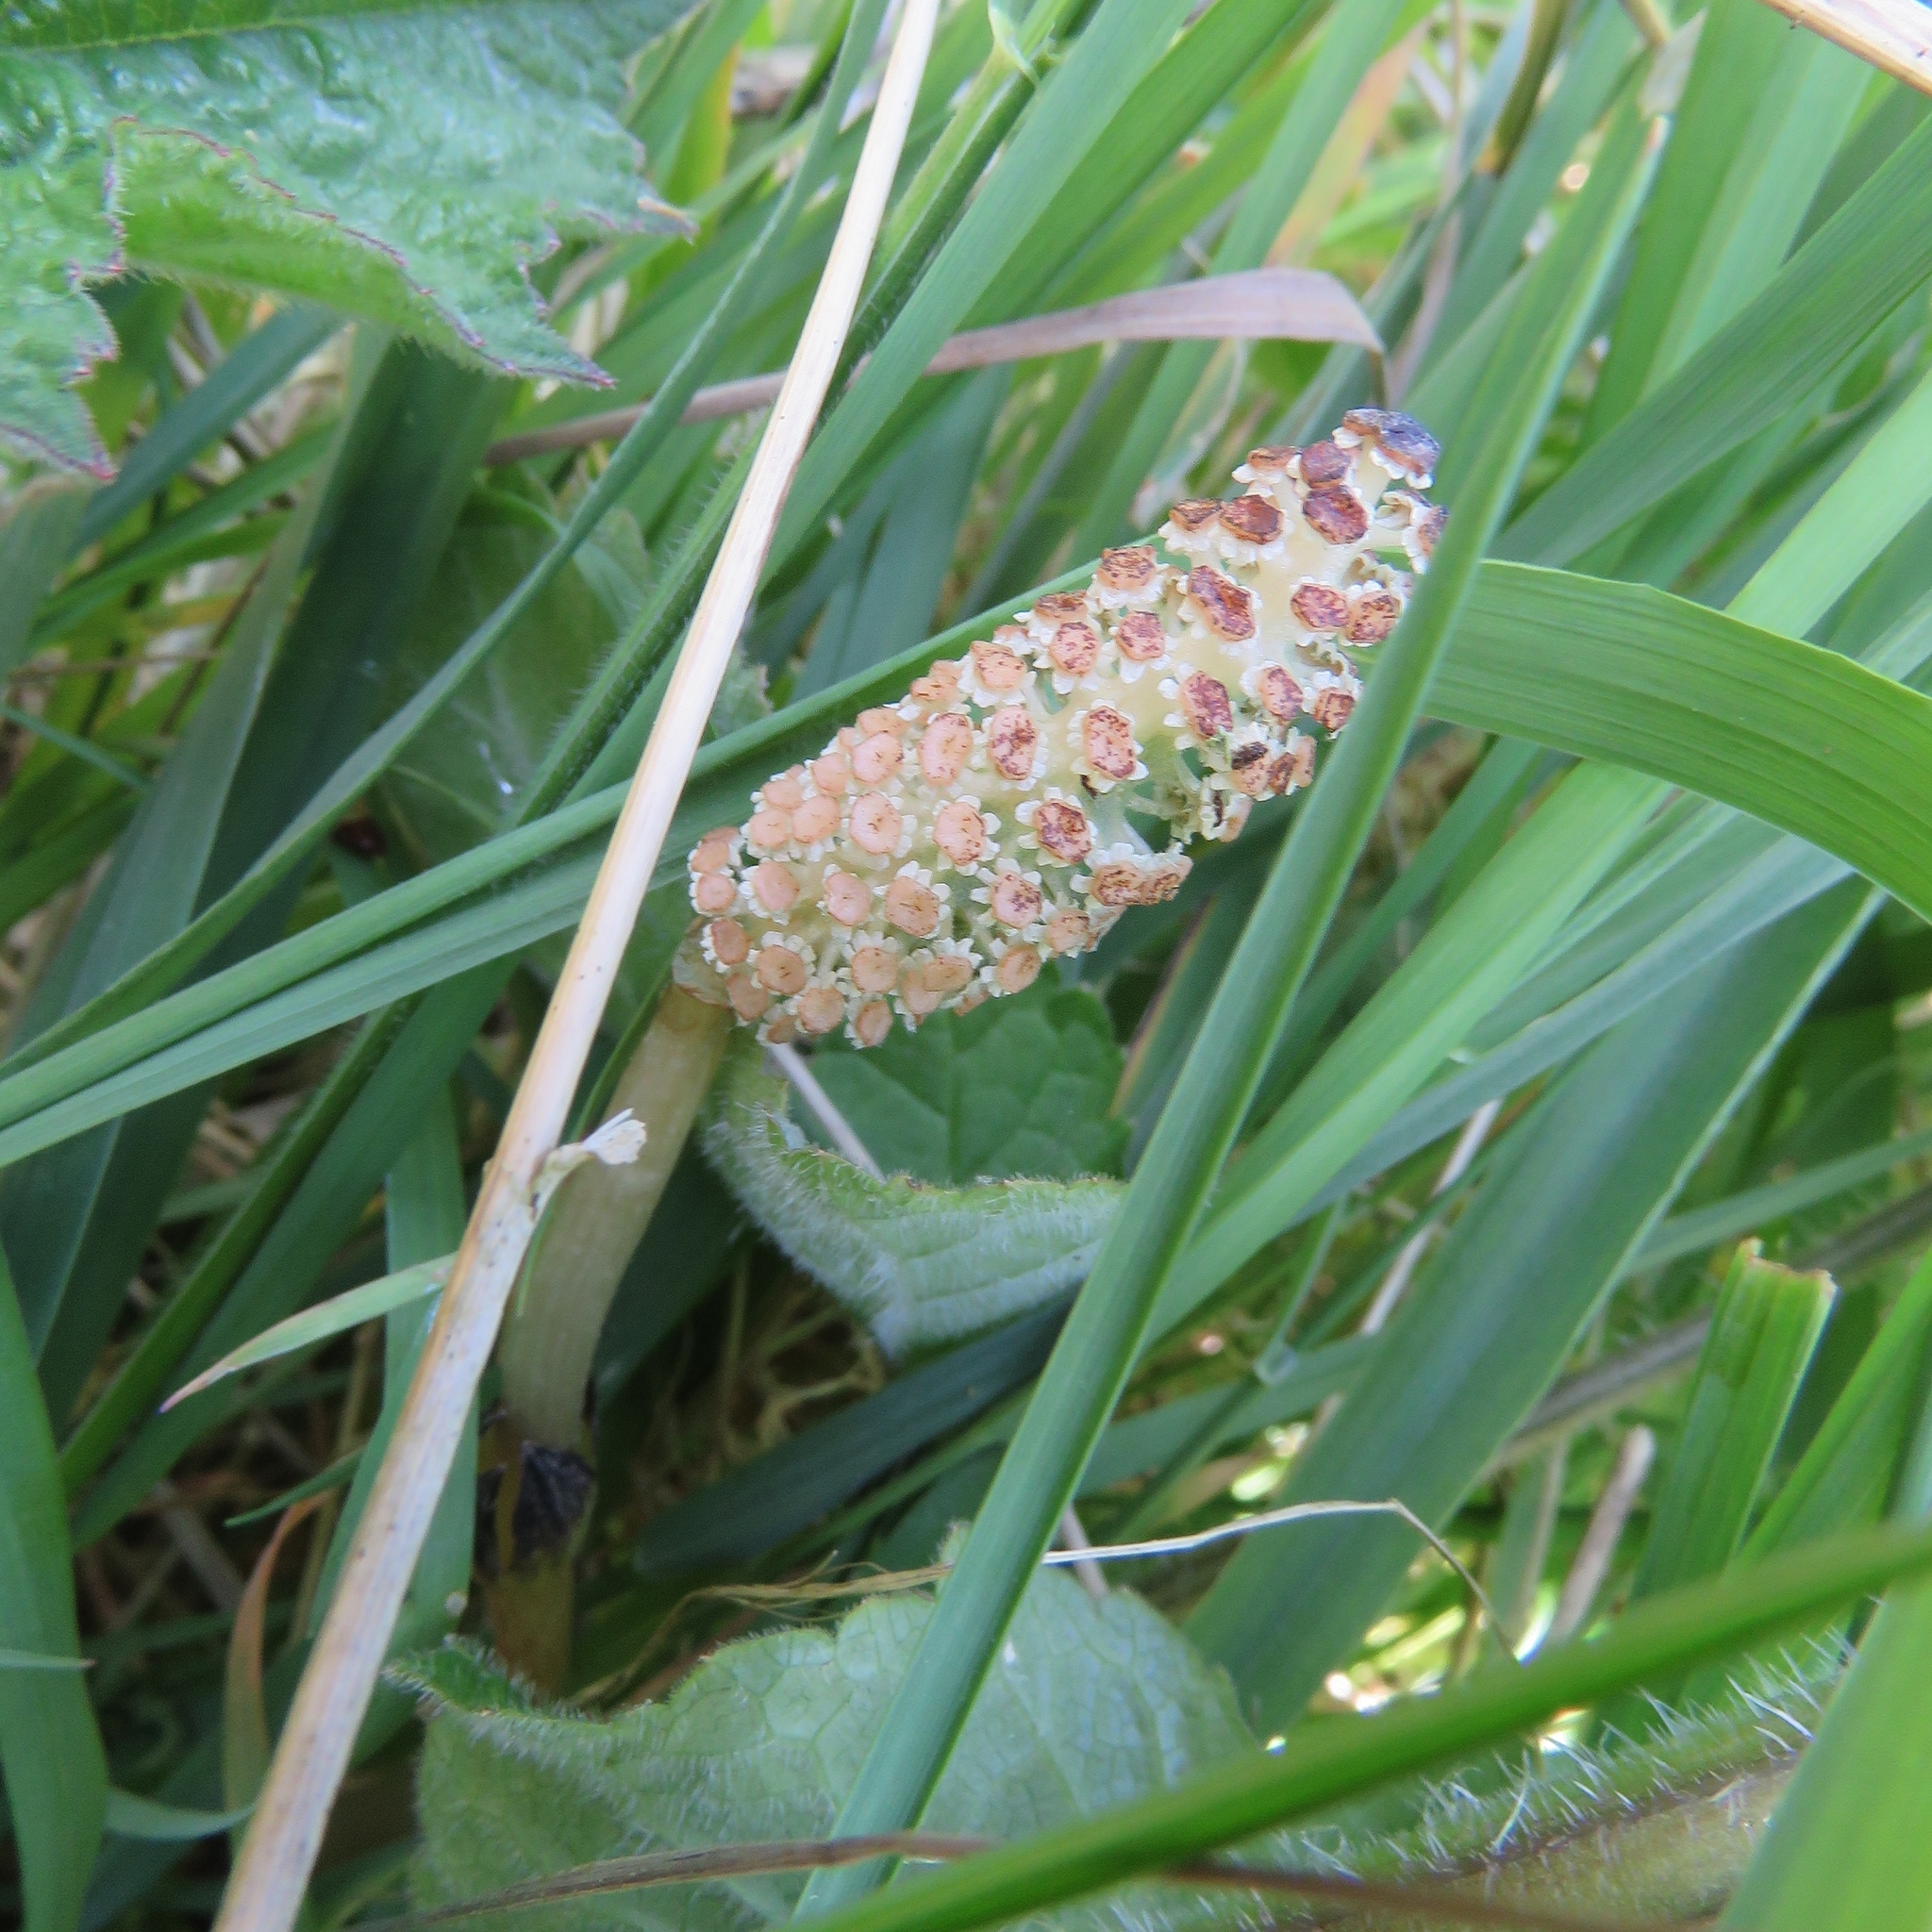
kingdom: Plantae
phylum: Tracheophyta
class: Polypodiopsida
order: Equisetales
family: Equisetaceae
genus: Equisetum
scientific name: Equisetum arvense
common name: Field horsetail
